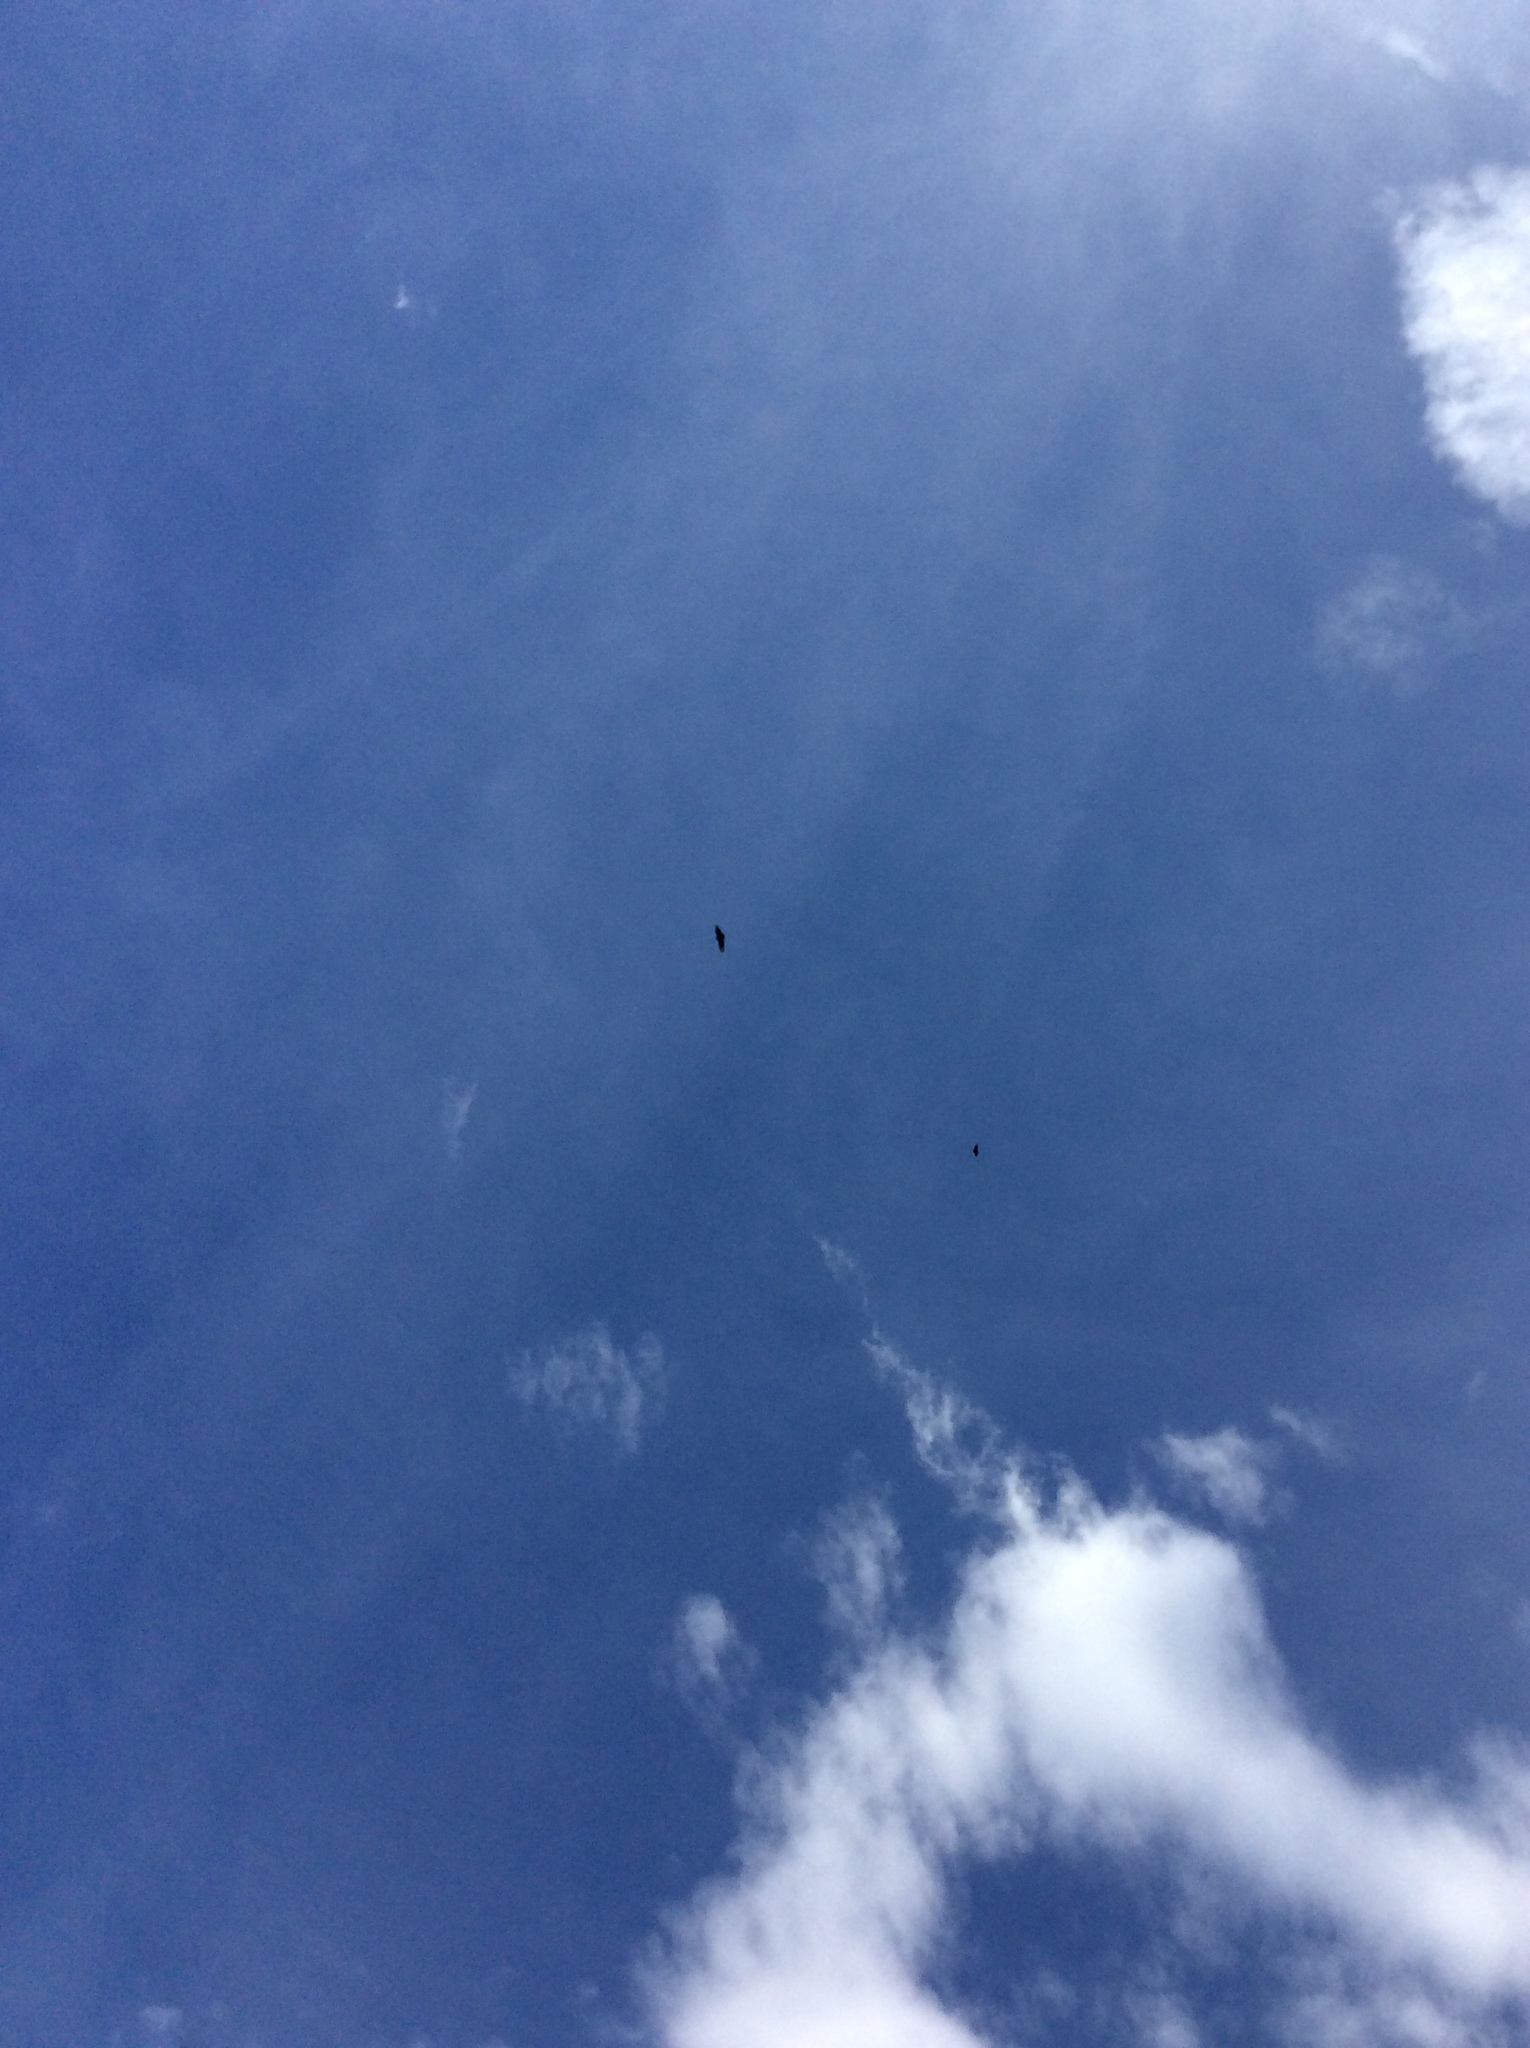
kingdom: Animalia
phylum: Chordata
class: Aves
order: Accipitriformes
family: Cathartidae
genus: Coragyps
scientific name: Coragyps atratus
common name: Black vulture
